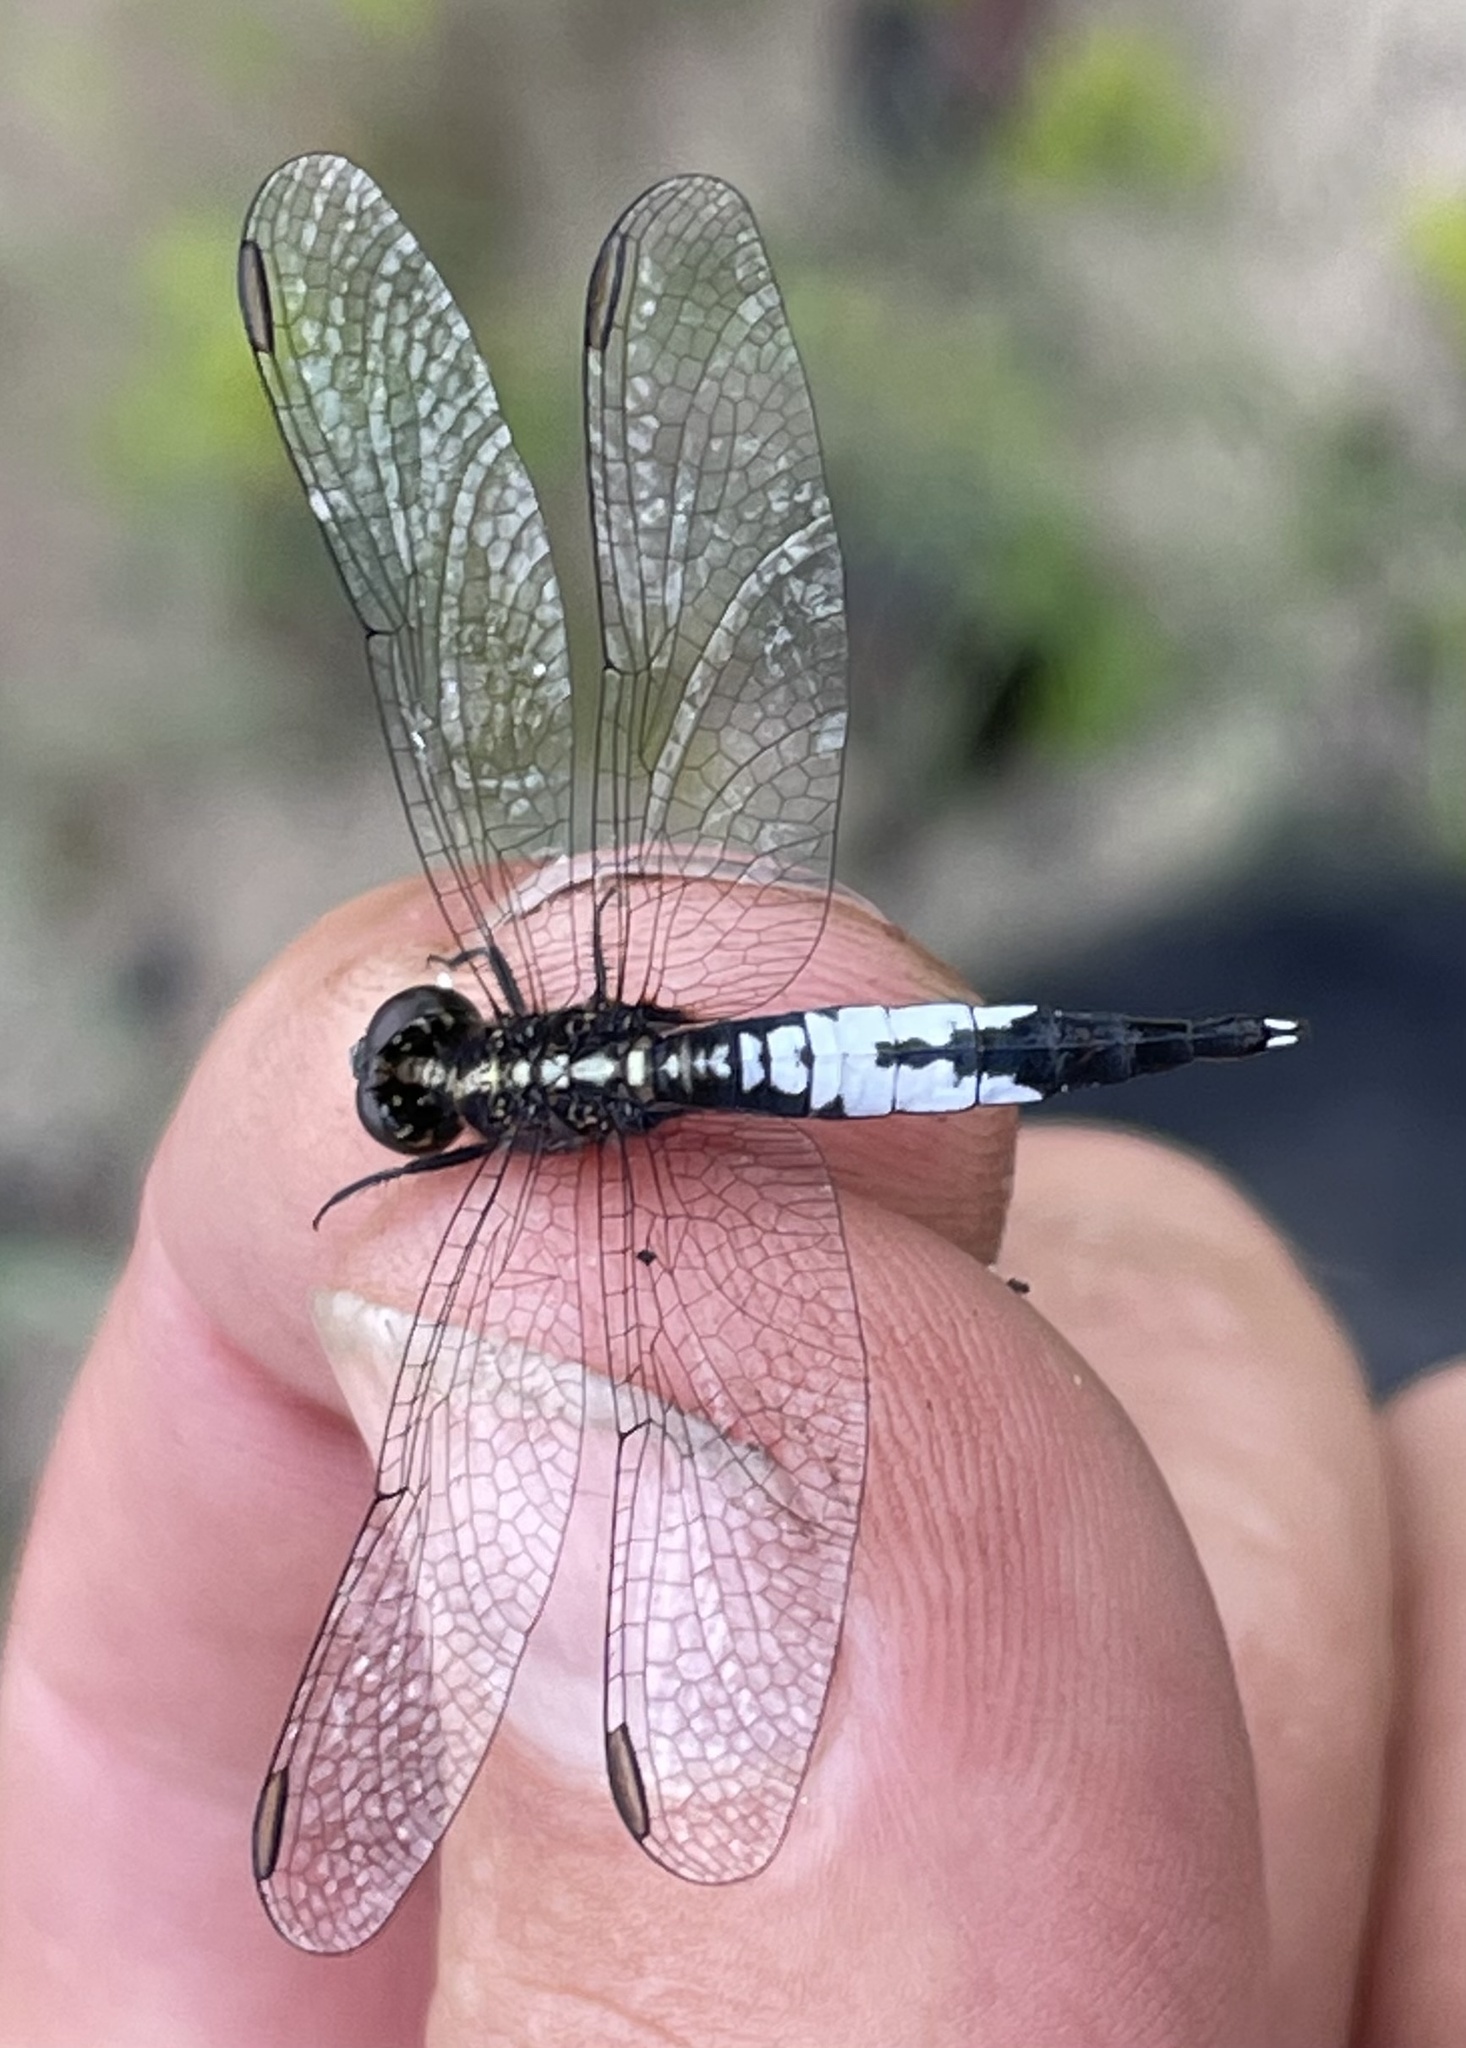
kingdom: Animalia
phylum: Arthropoda
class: Insecta
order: Odonata
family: Libellulidae
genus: Acisoma
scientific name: Acisoma trifidum
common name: Ivory pintail
